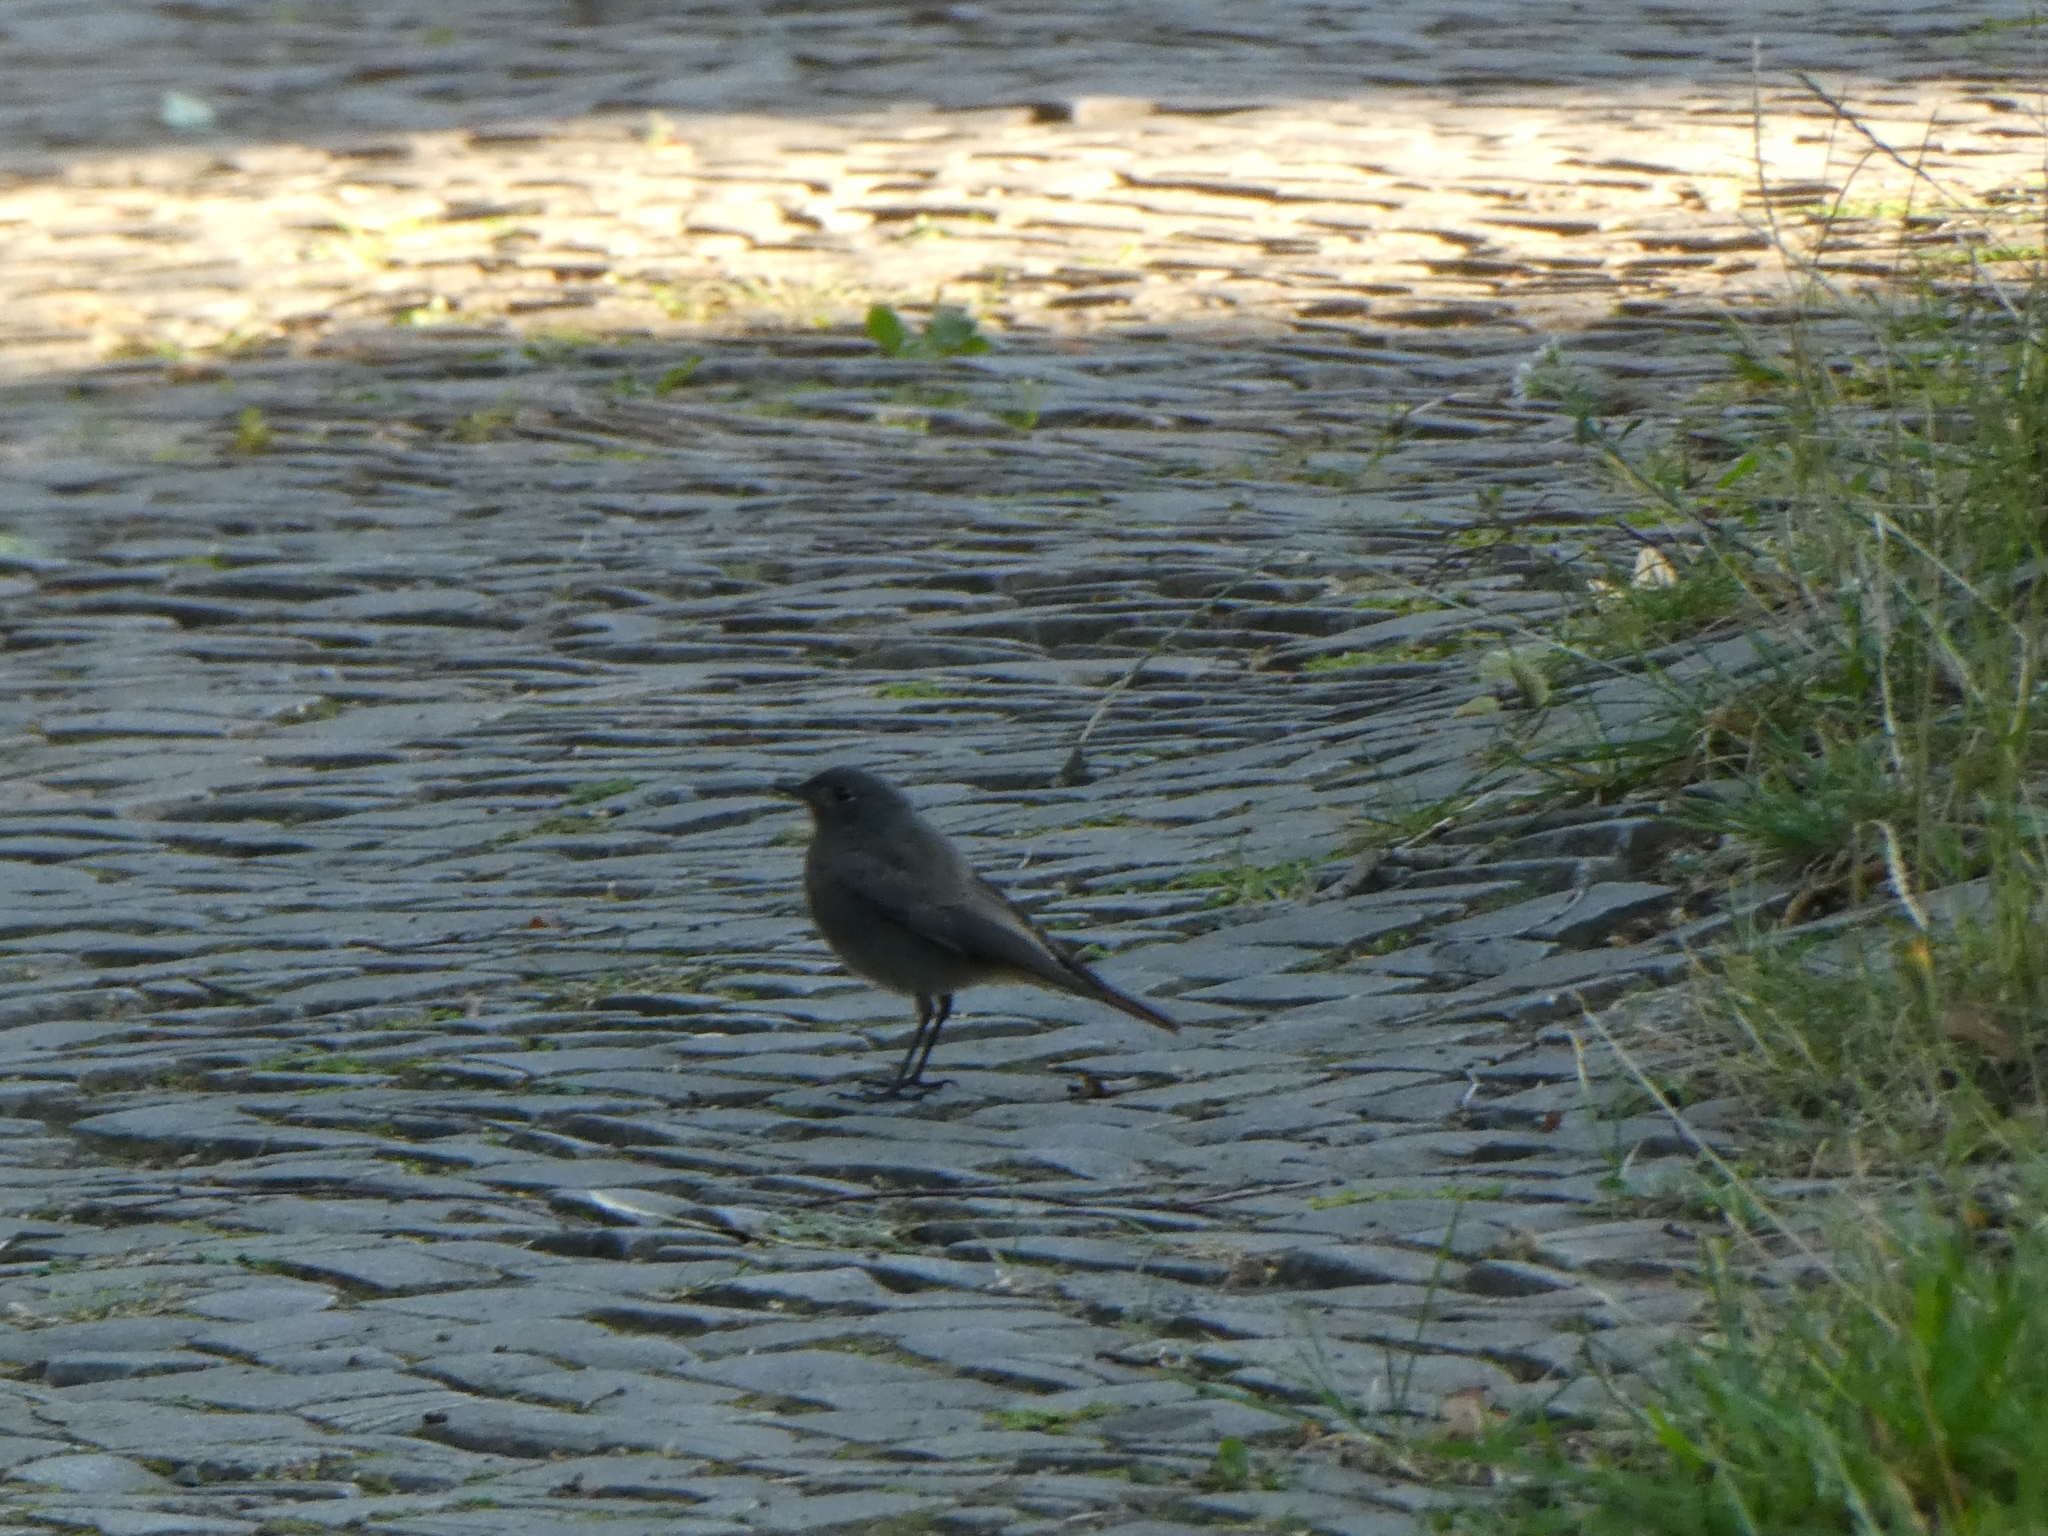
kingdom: Animalia
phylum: Chordata
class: Aves
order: Passeriformes
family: Muscicapidae
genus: Phoenicurus
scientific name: Phoenicurus ochruros
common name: Black redstart
